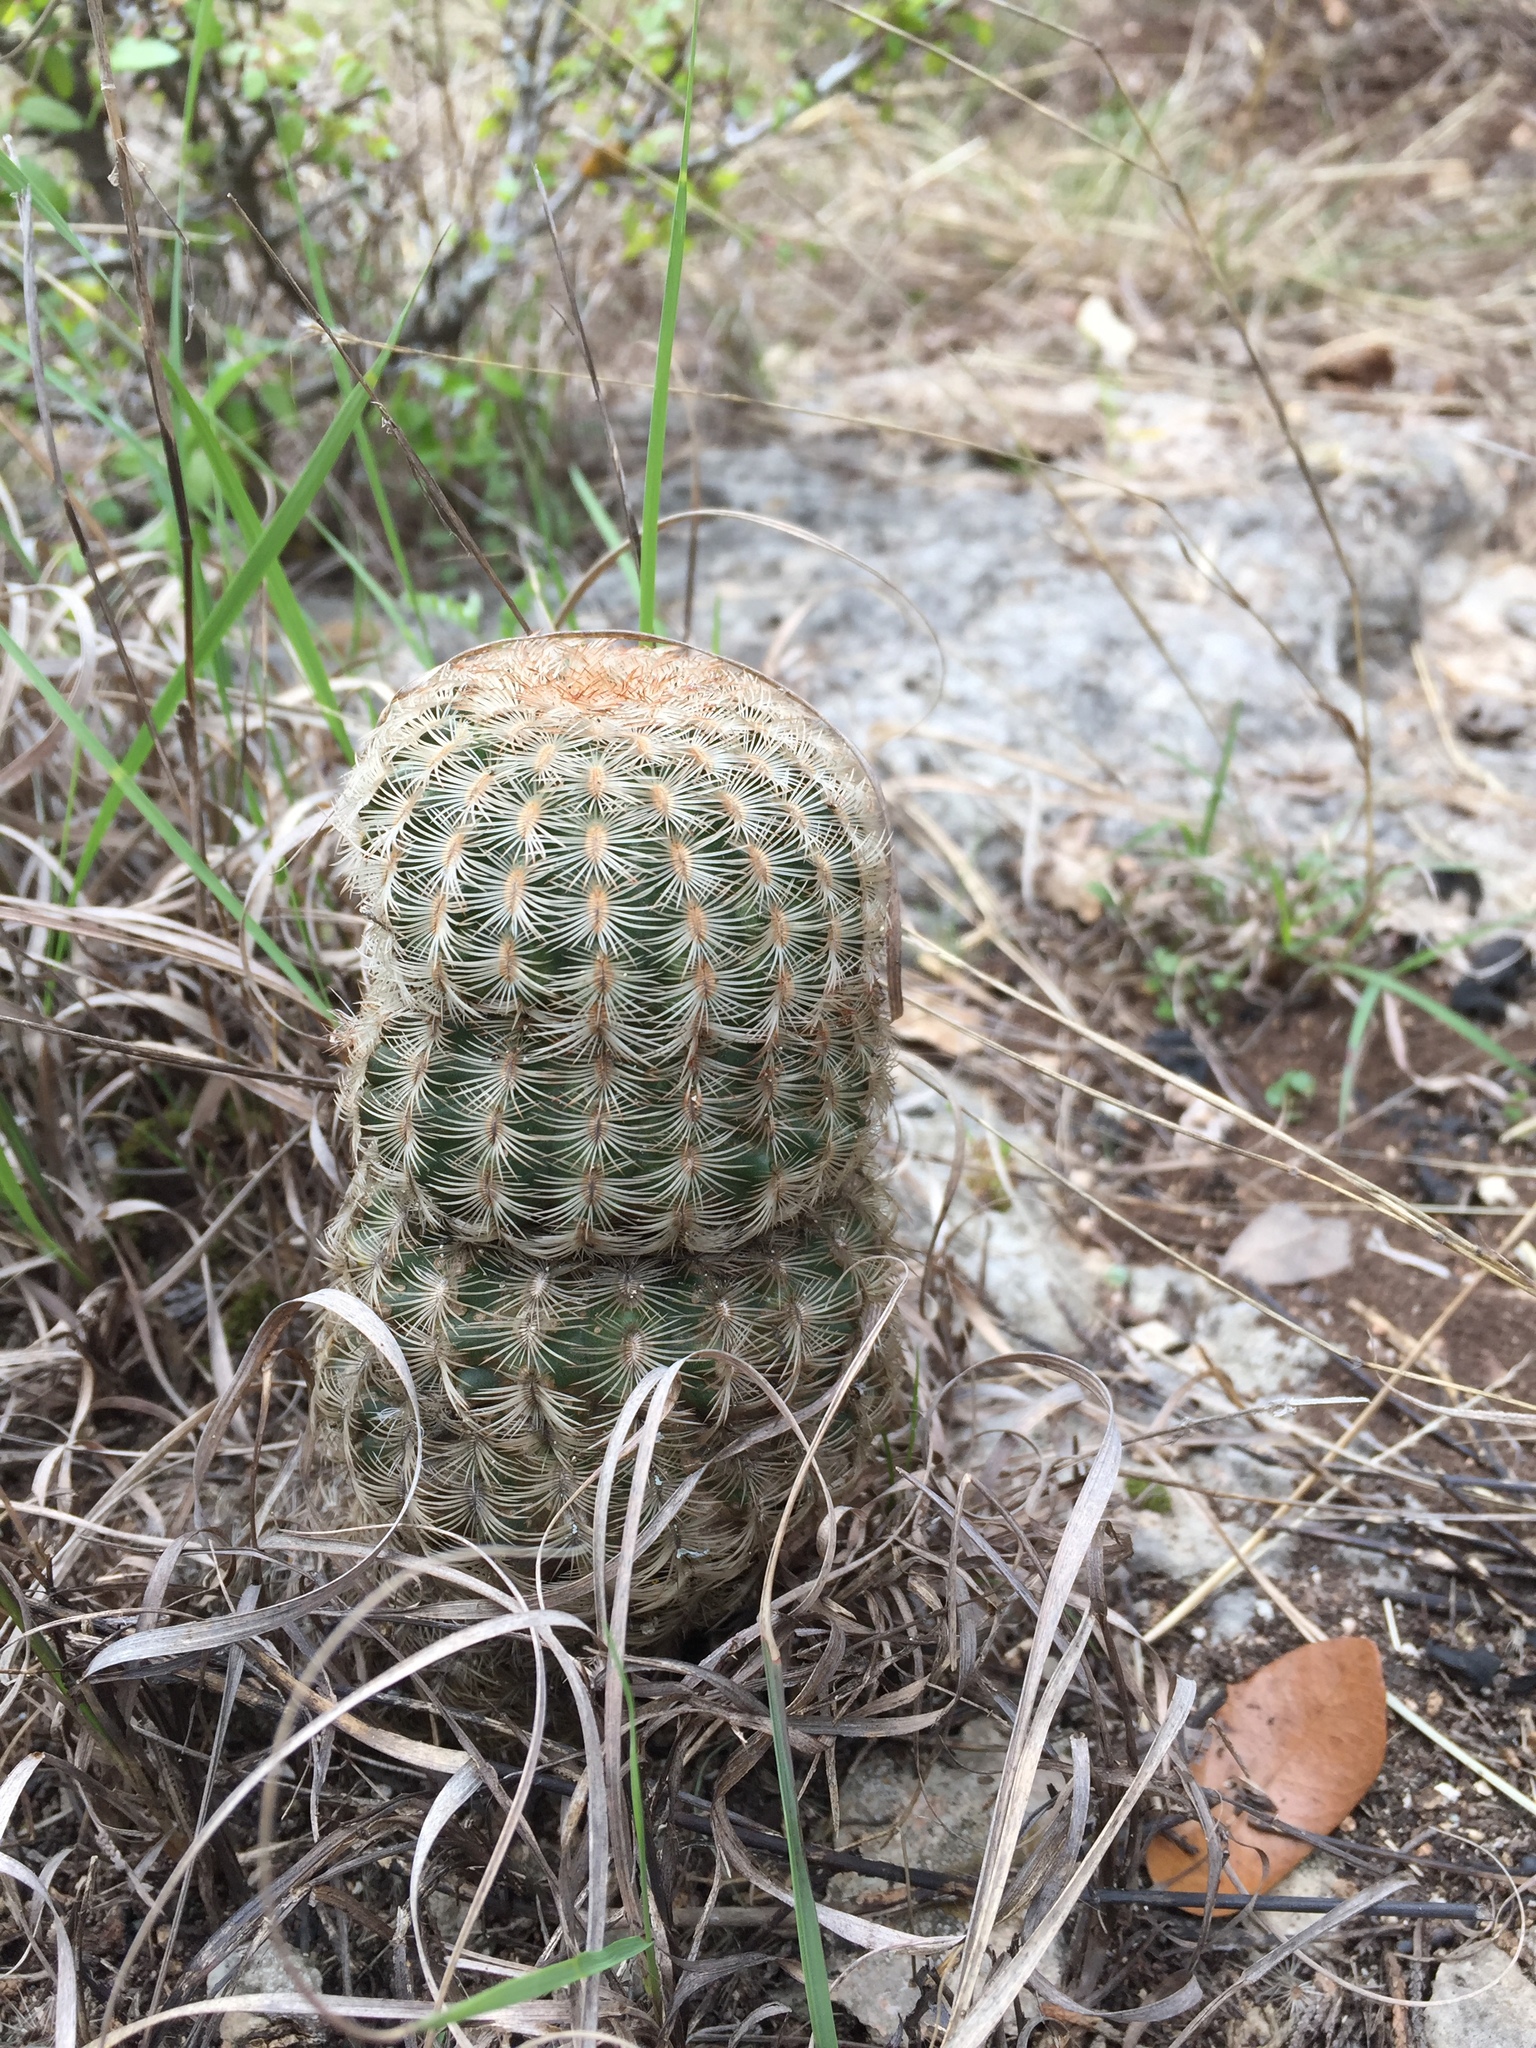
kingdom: Plantae
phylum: Tracheophyta
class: Magnoliopsida
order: Caryophyllales
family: Cactaceae
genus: Echinocereus
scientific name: Echinocereus reichenbachii
